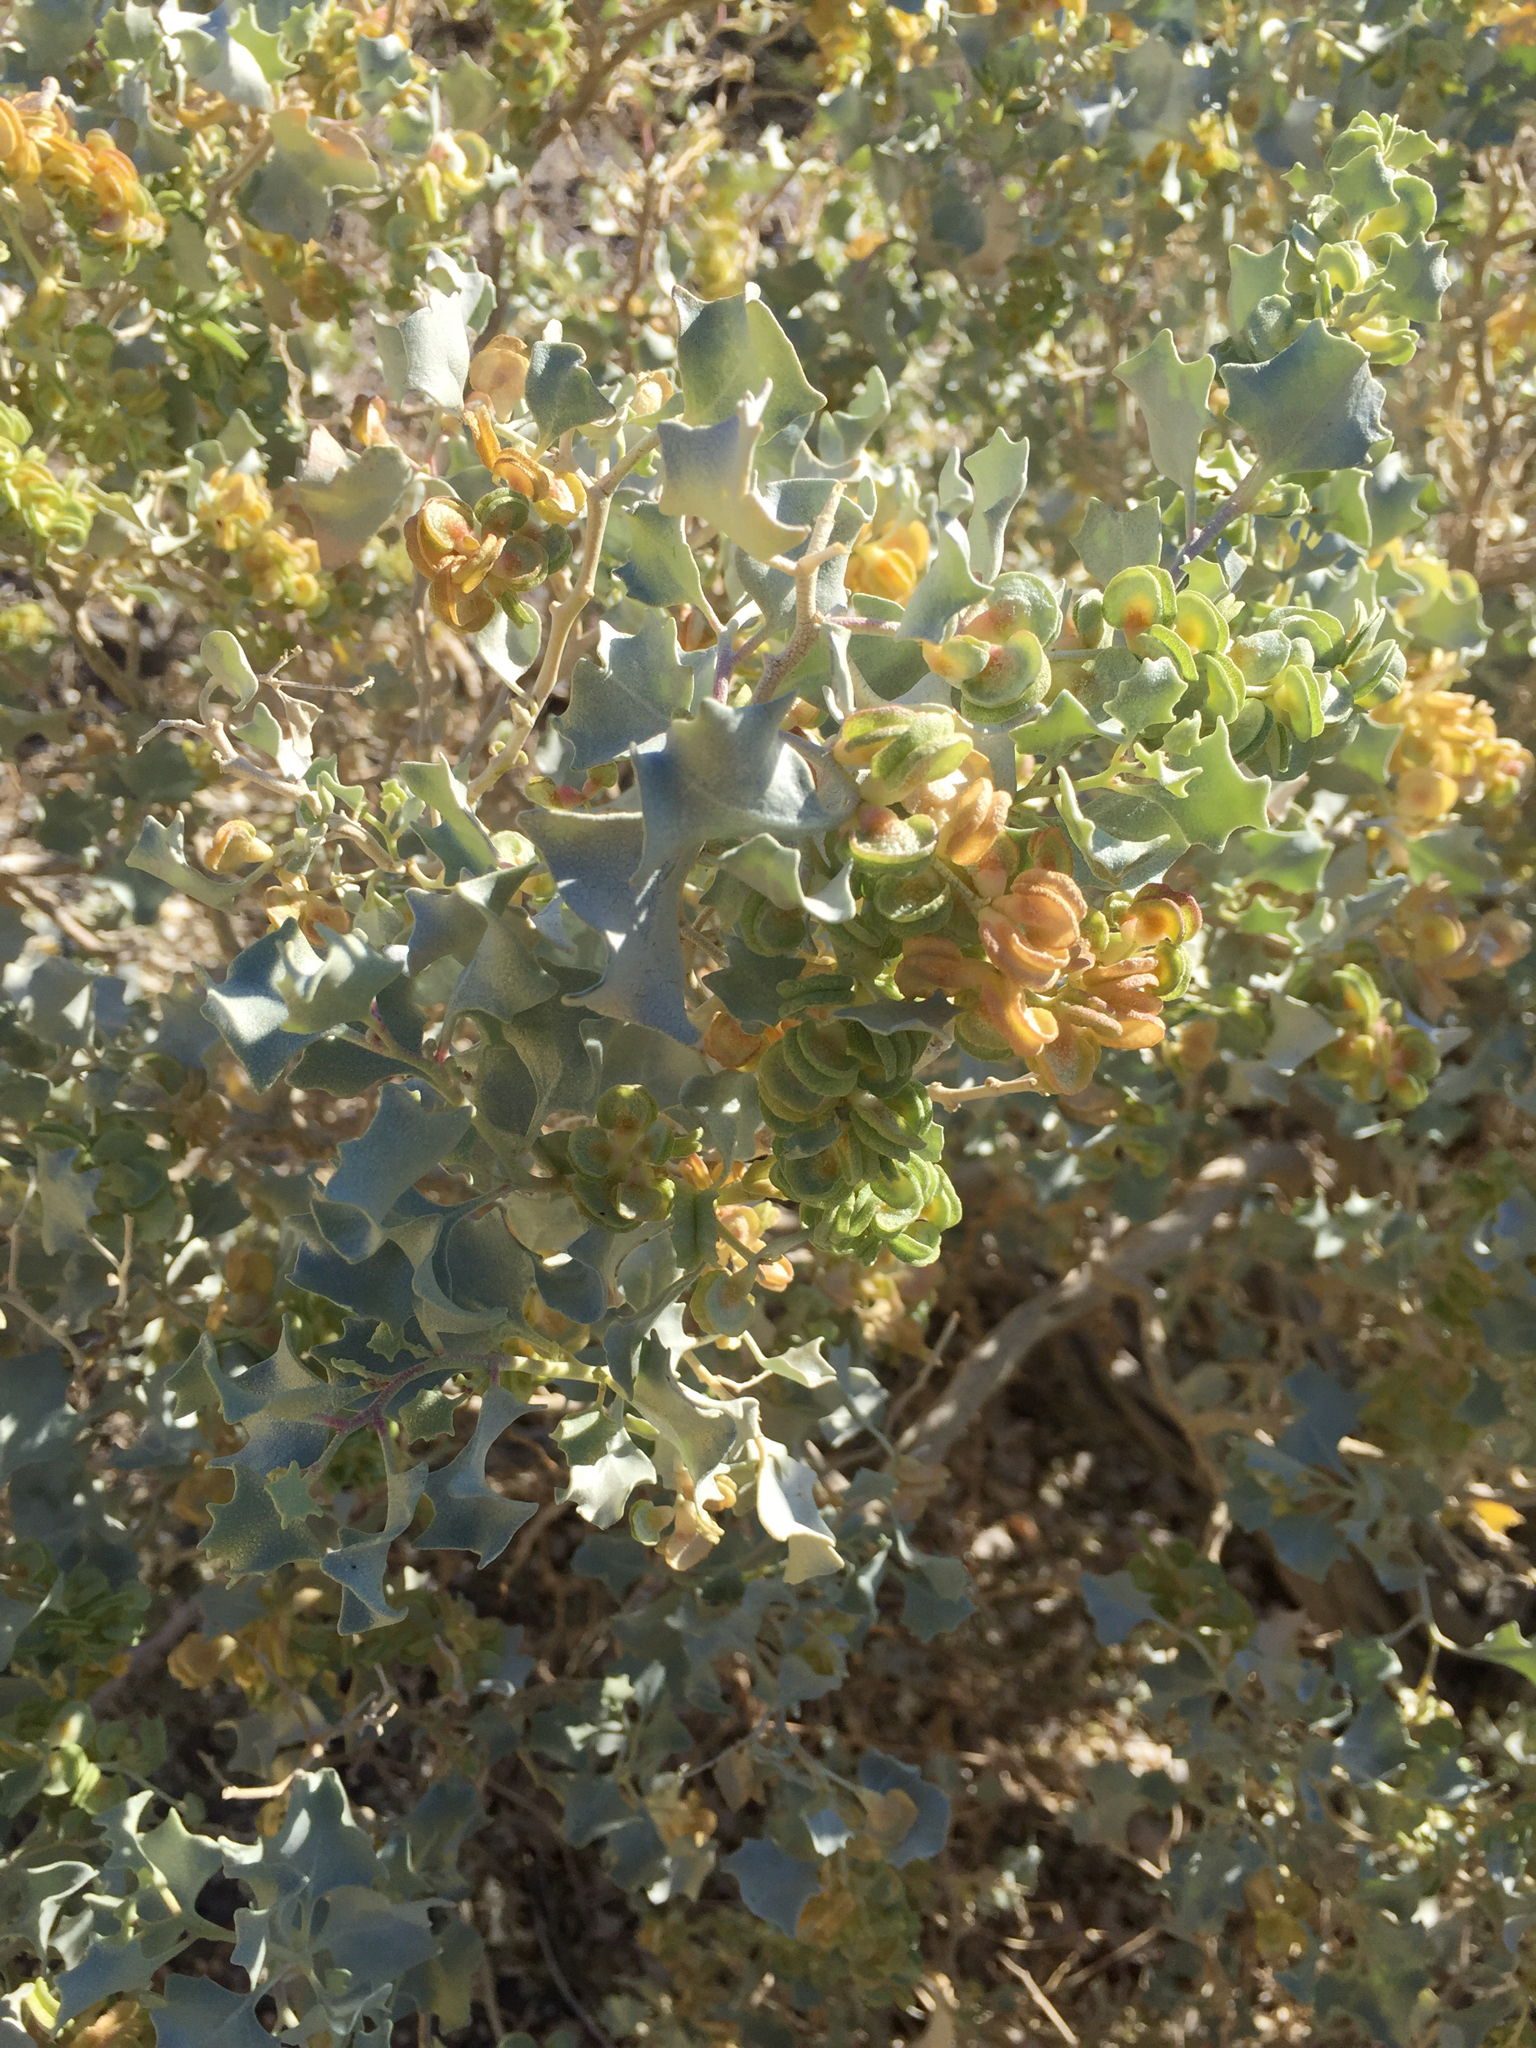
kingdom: Plantae
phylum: Tracheophyta
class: Magnoliopsida
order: Caryophyllales
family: Amaranthaceae
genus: Atriplex
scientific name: Atriplex hymenelytra
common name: Desert-holly
